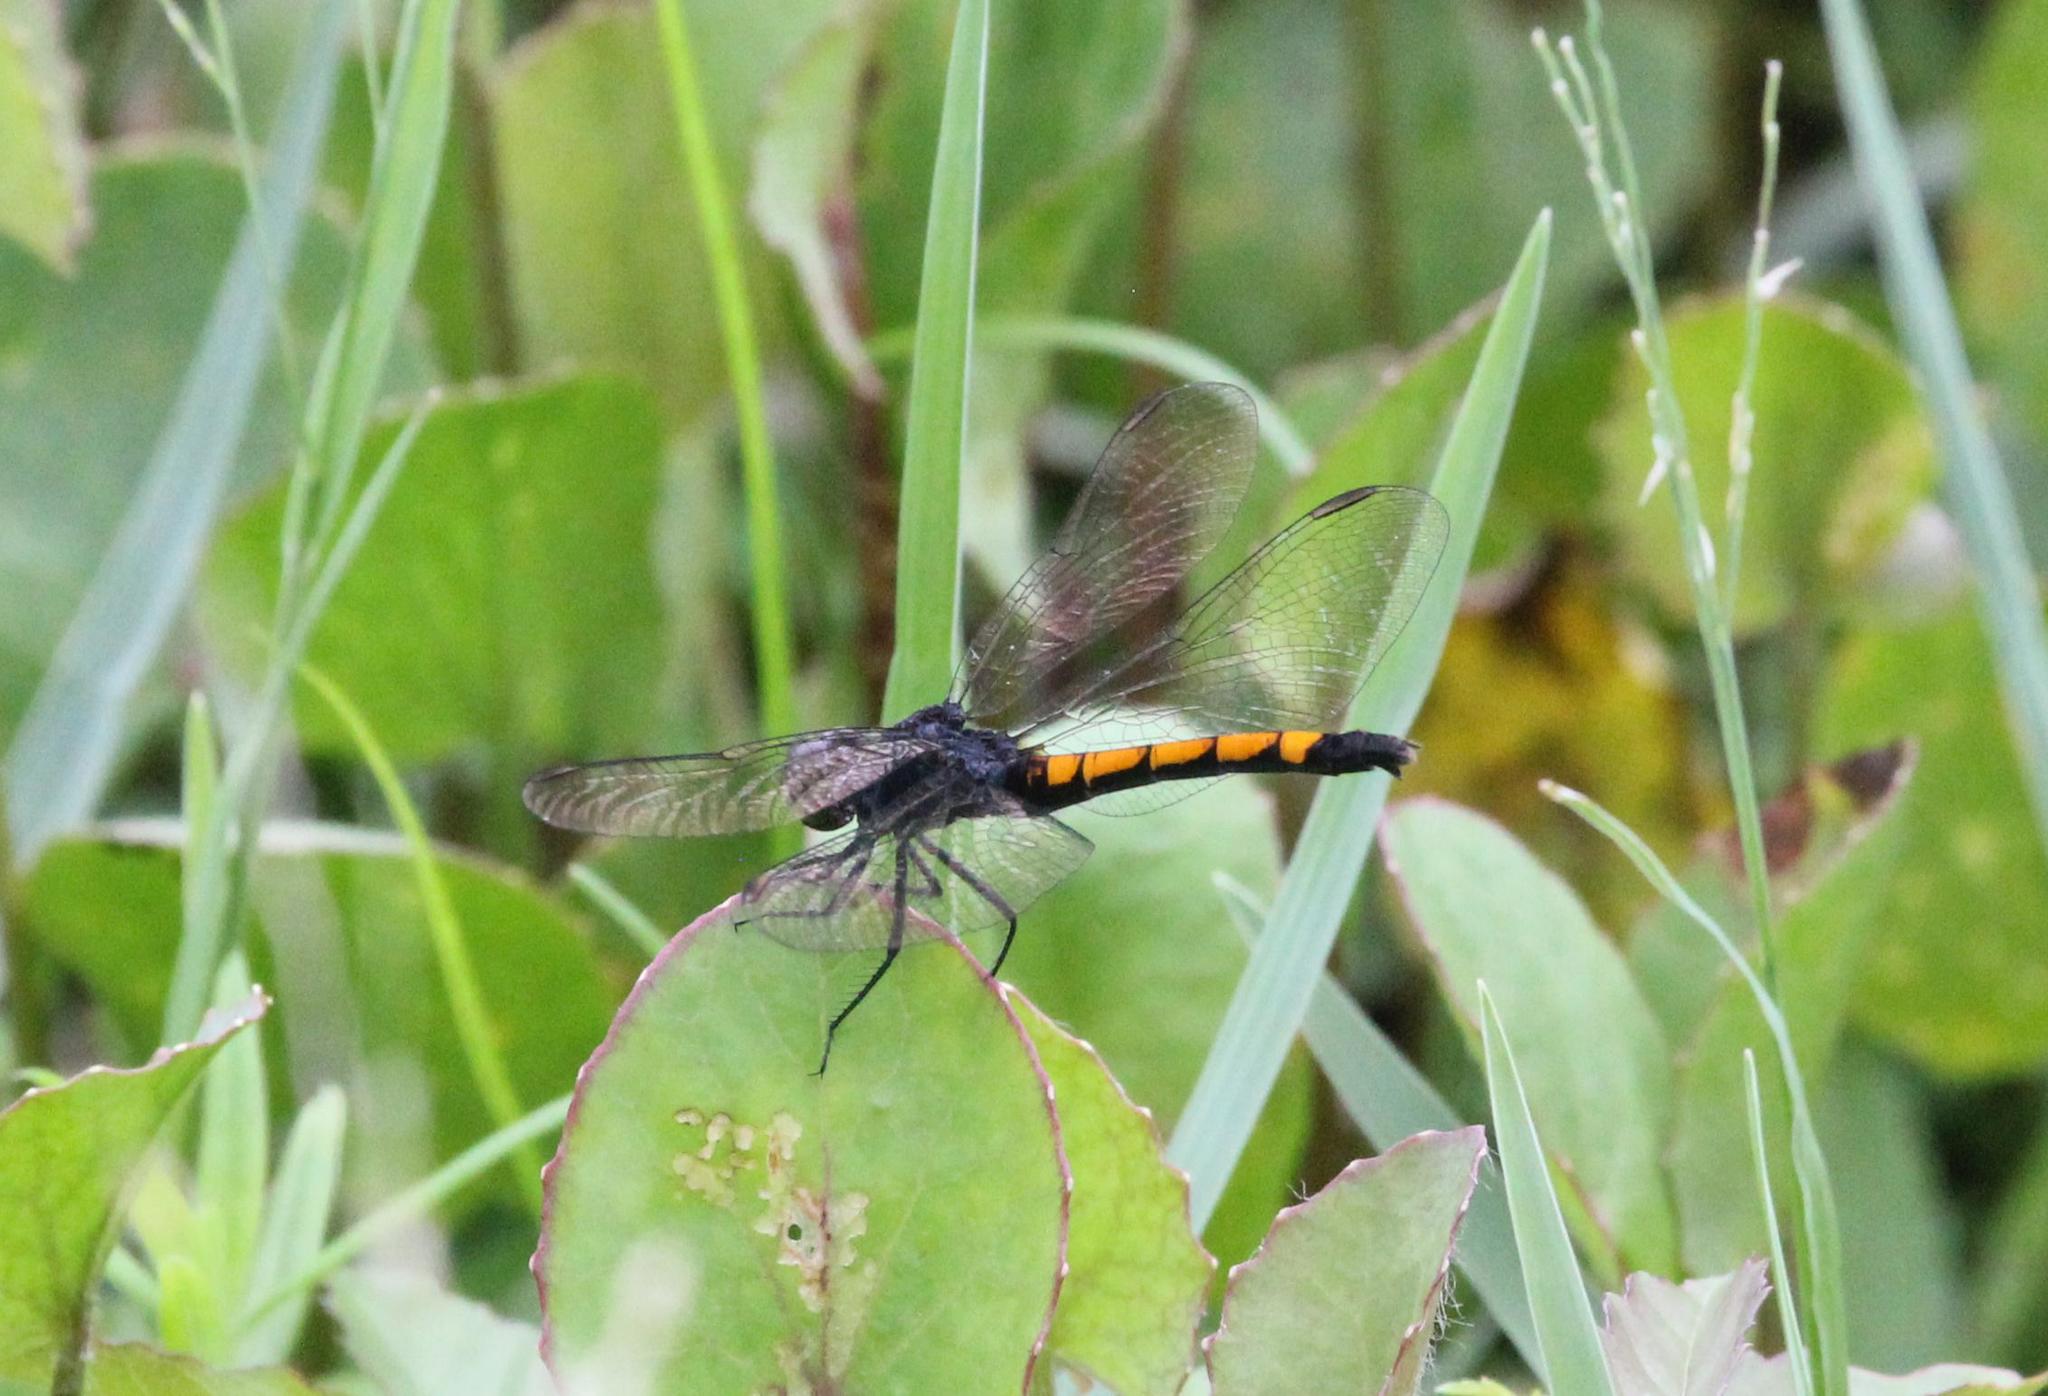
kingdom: Animalia
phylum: Arthropoda
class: Insecta
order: Odonata
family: Libellulidae
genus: Erythrodiplax
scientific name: Erythrodiplax berenice
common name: Seaside dragonlet
